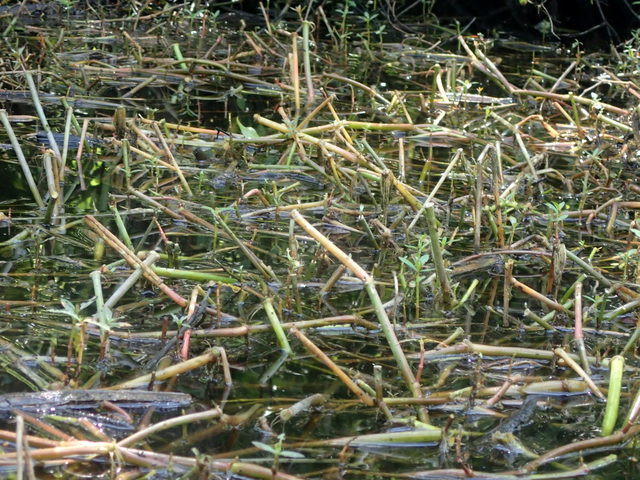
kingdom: Plantae
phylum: Tracheophyta
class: Magnoliopsida
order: Caryophyllales
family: Amaranthaceae
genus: Alternanthera
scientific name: Alternanthera philoxeroides
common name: Alligatorweed
